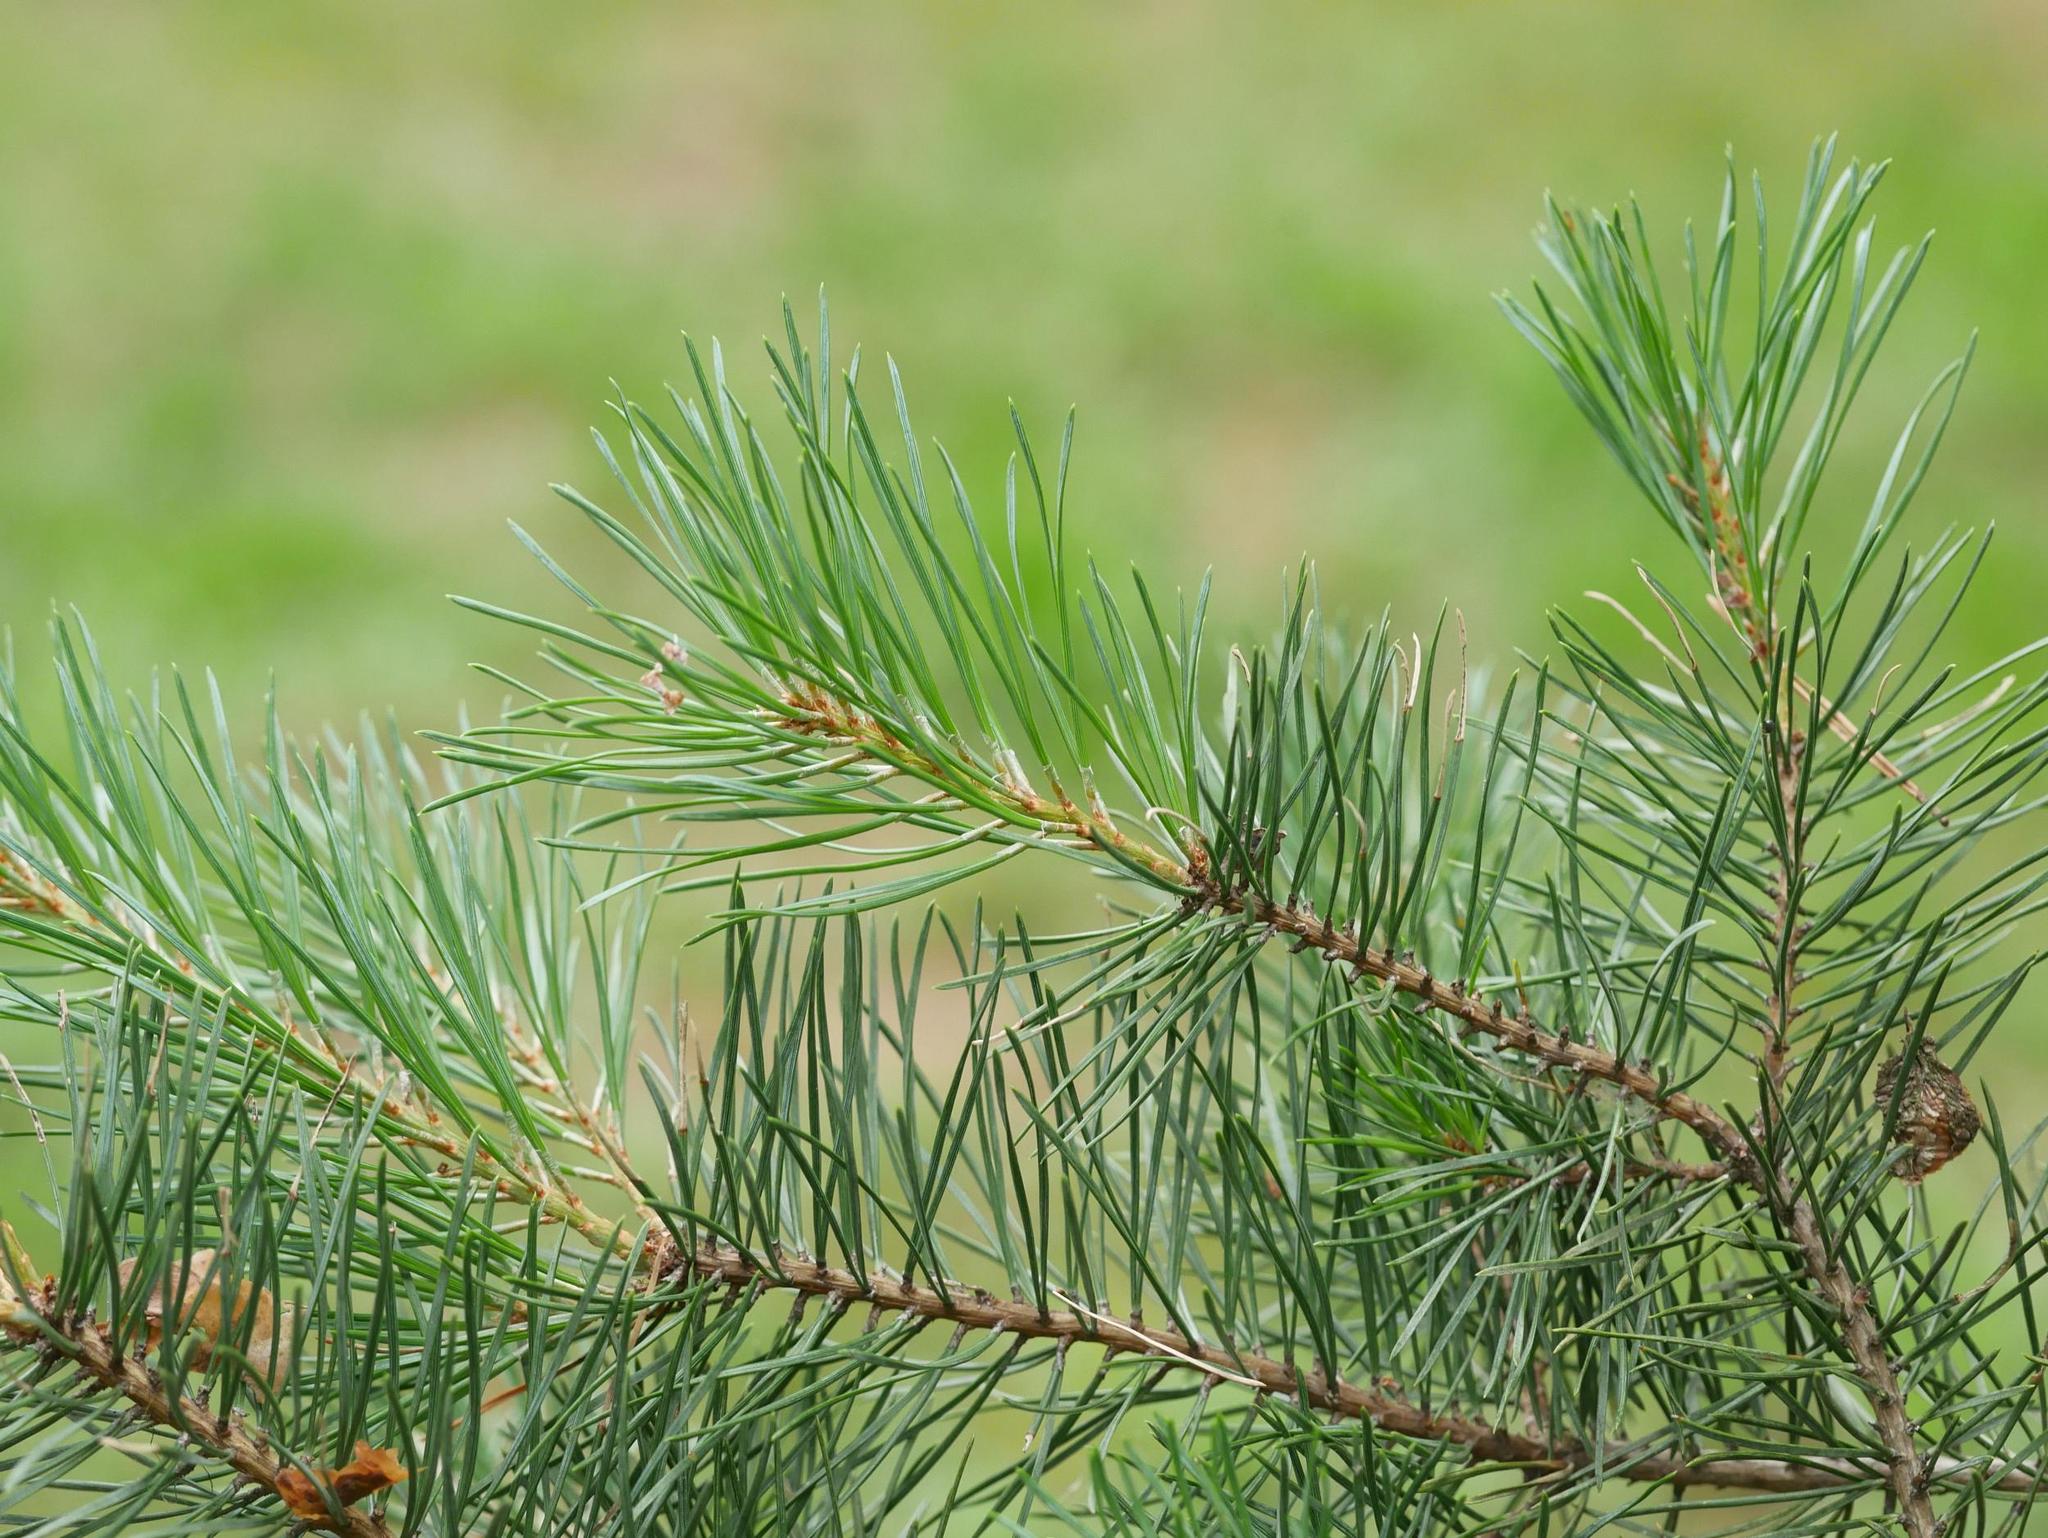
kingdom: Plantae
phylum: Tracheophyta
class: Pinopsida
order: Pinales
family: Pinaceae
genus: Pinus
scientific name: Pinus sylvestris
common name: Scots pine
